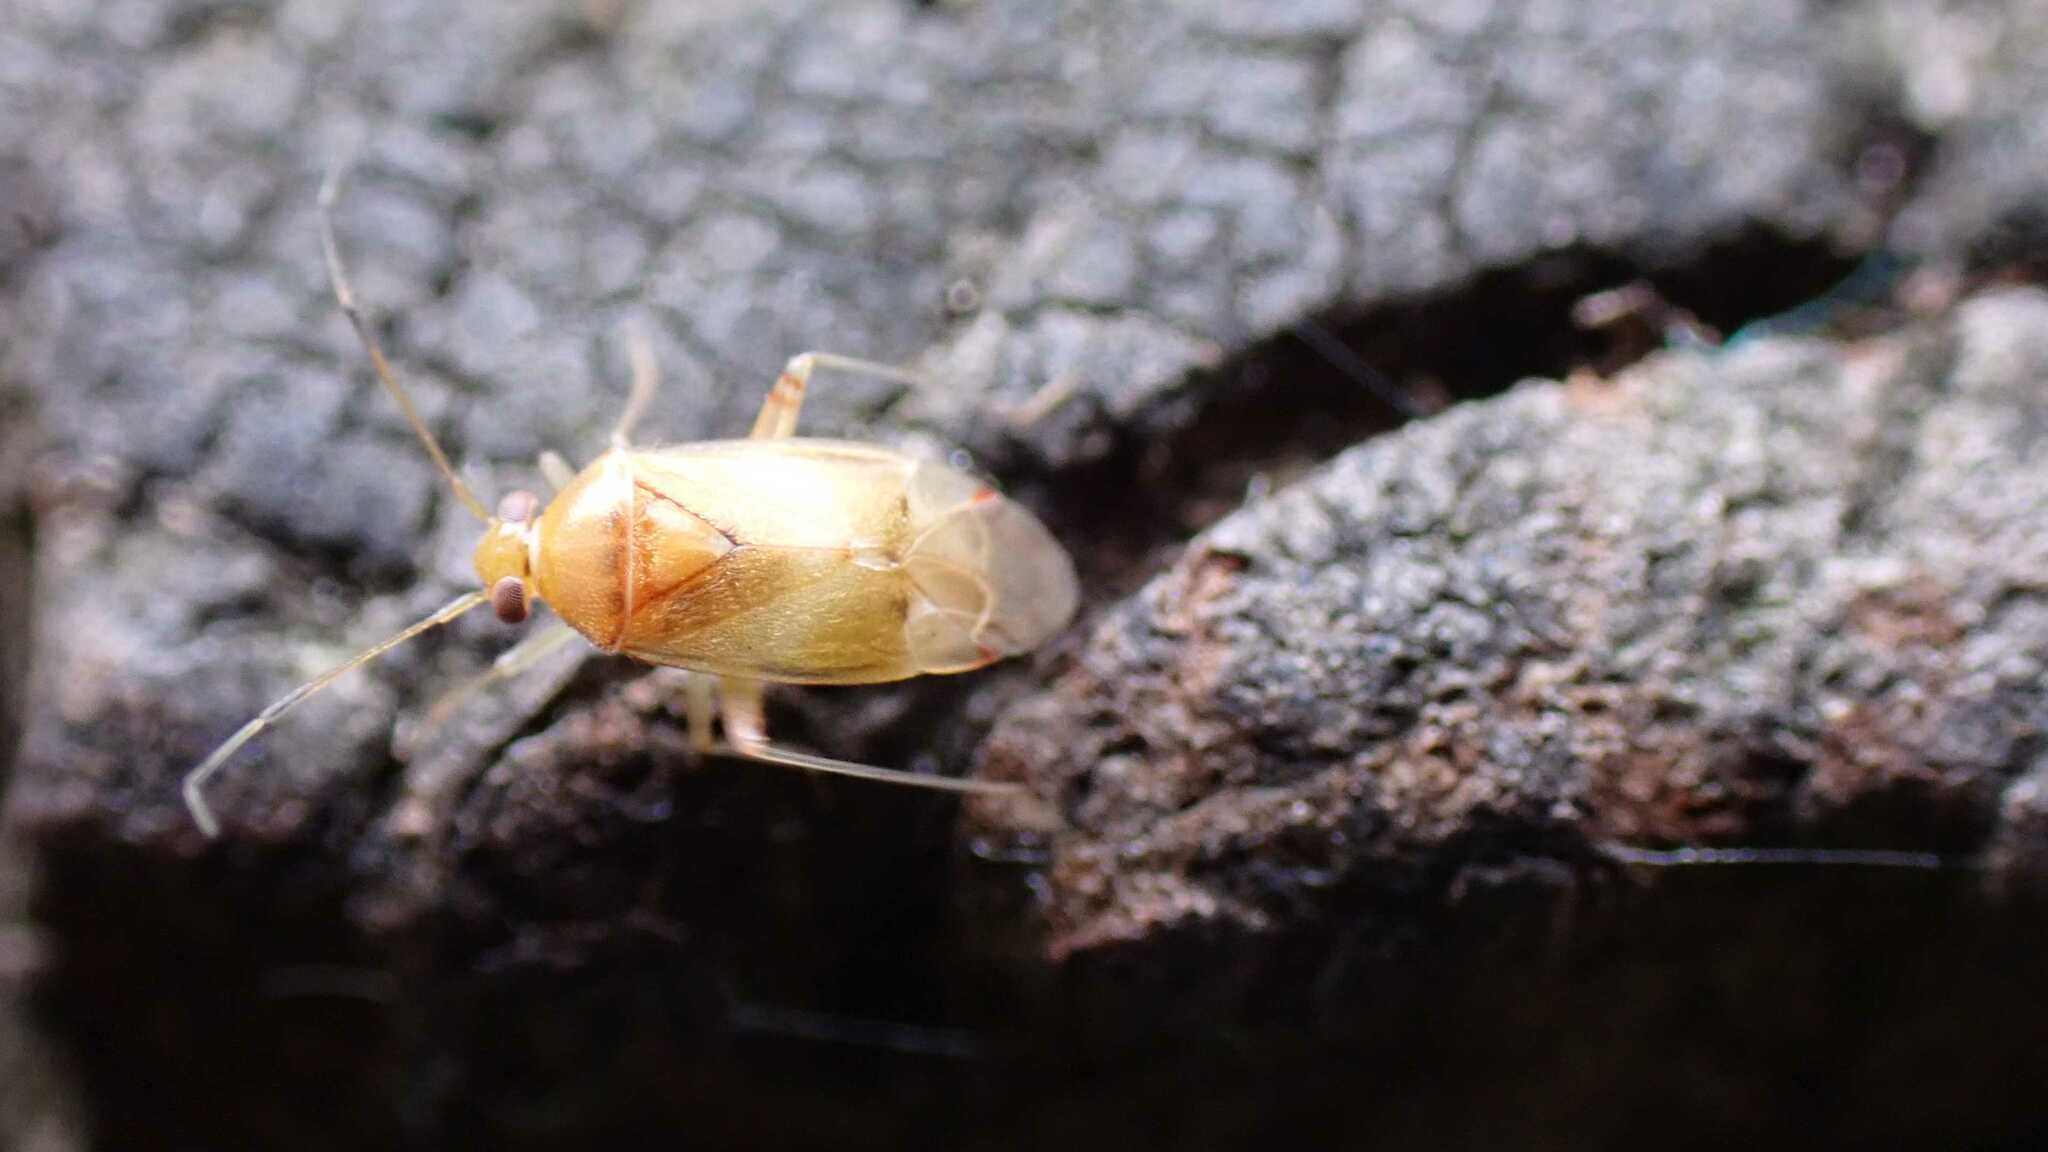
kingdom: Animalia
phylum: Arthropoda
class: Insecta
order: Hemiptera
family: Miridae
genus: Pinalitus
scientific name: Pinalitus cervinus
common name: Plant bug
